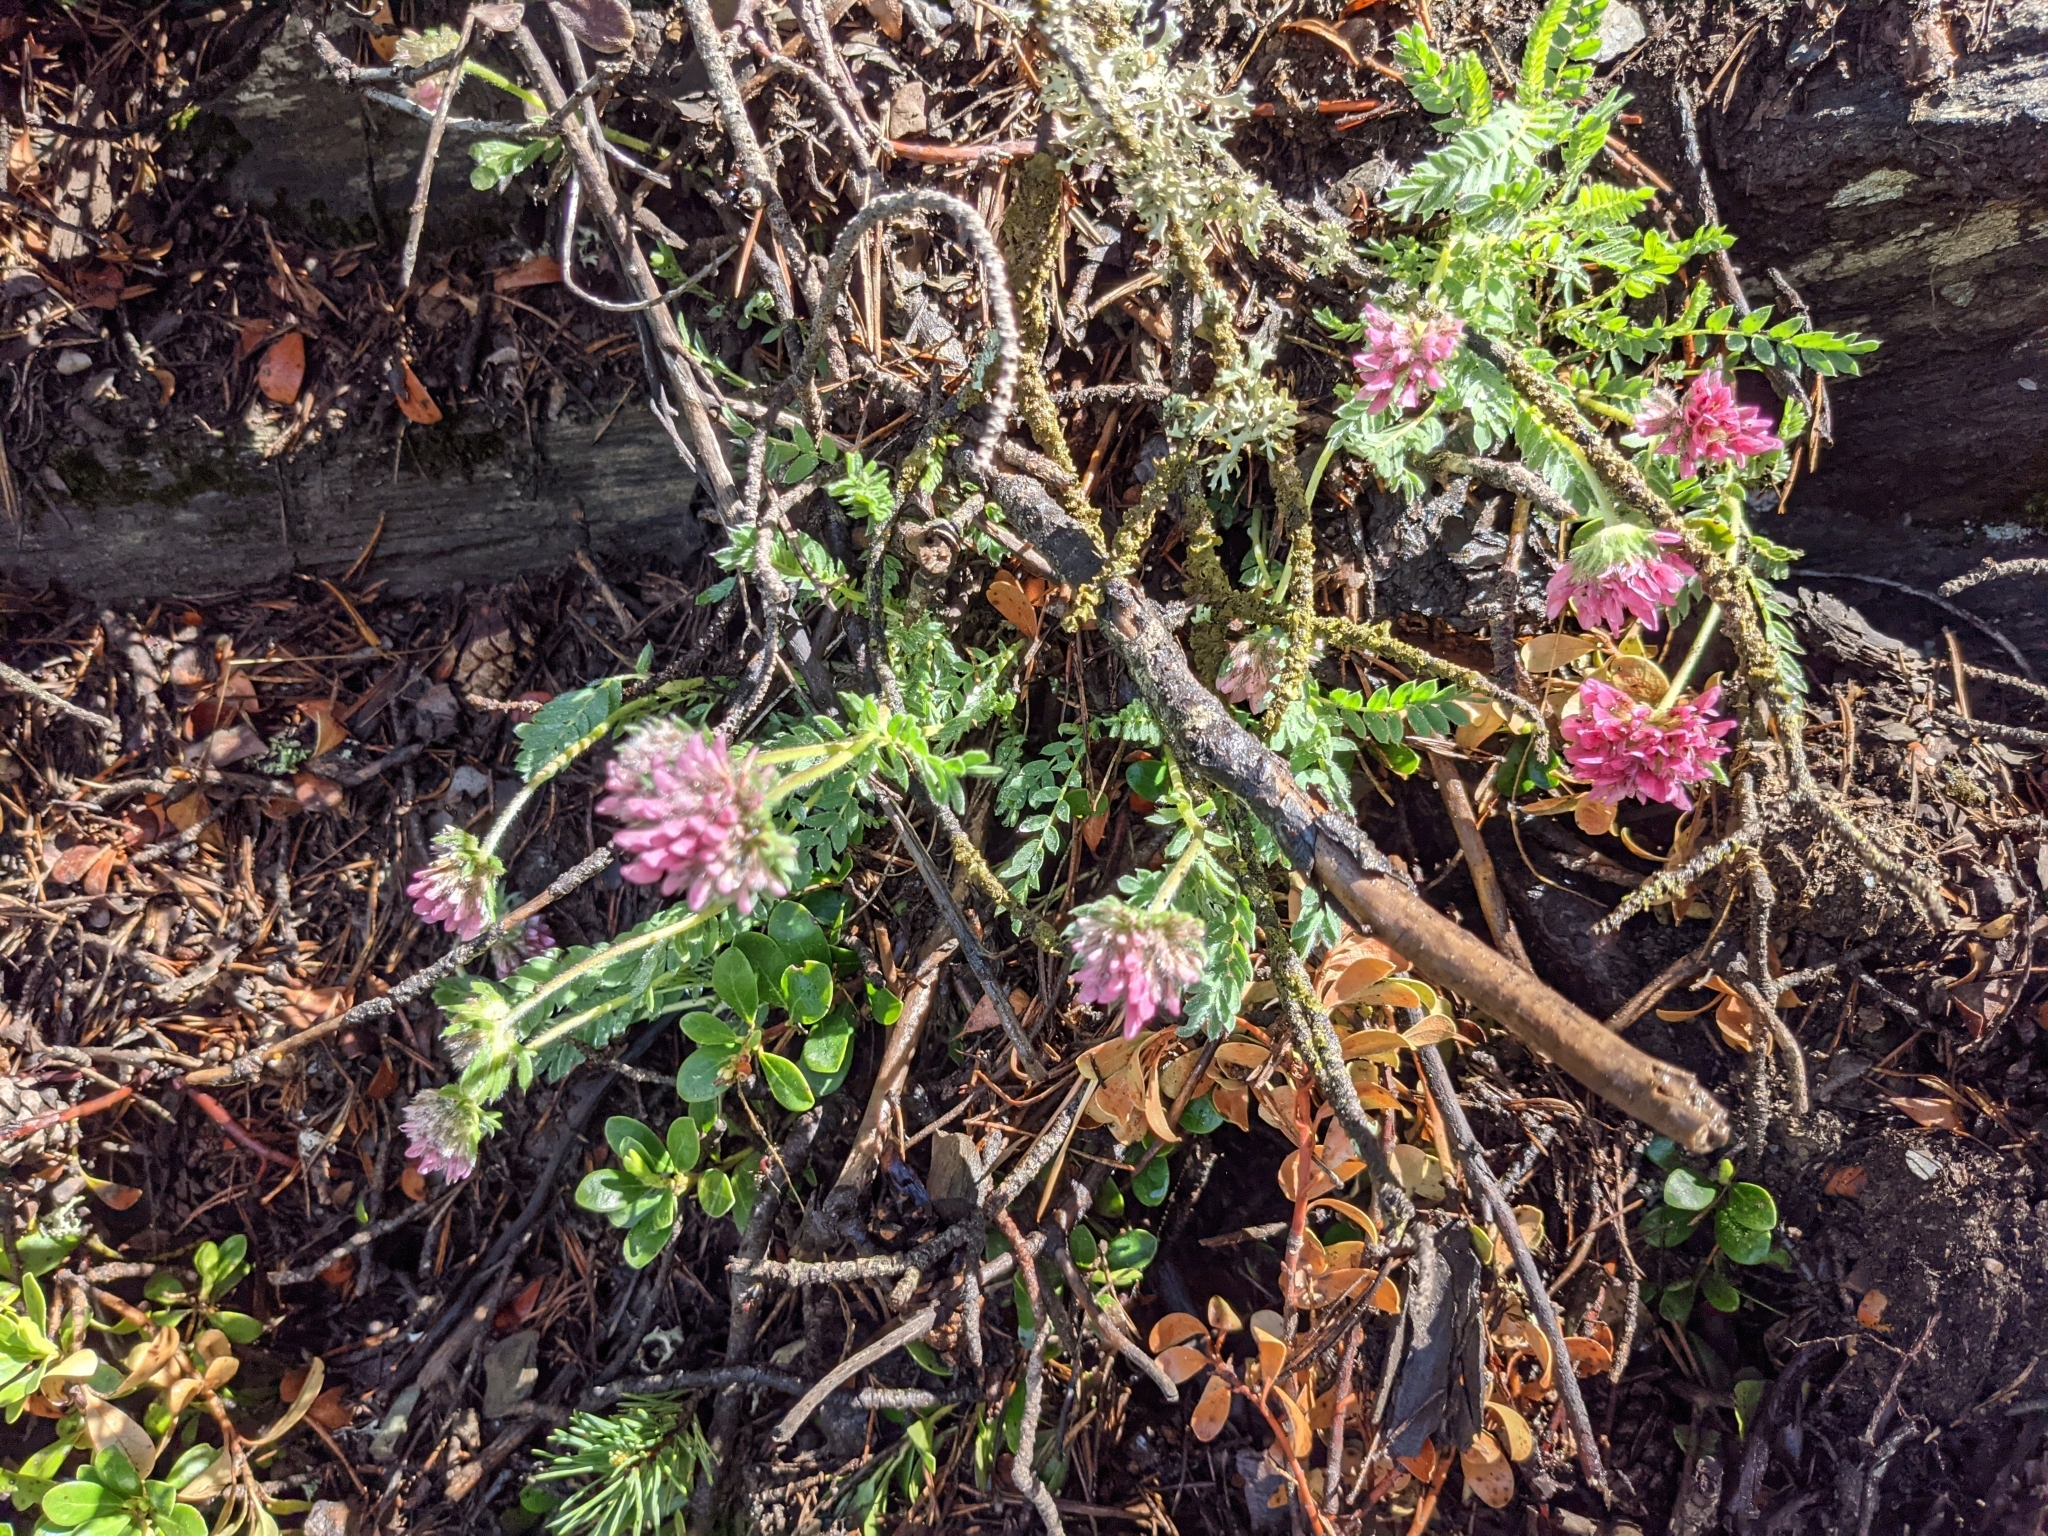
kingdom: Plantae
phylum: Tracheophyta
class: Magnoliopsida
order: Fabales
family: Fabaceae
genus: Anthyllis
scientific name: Anthyllis montana
